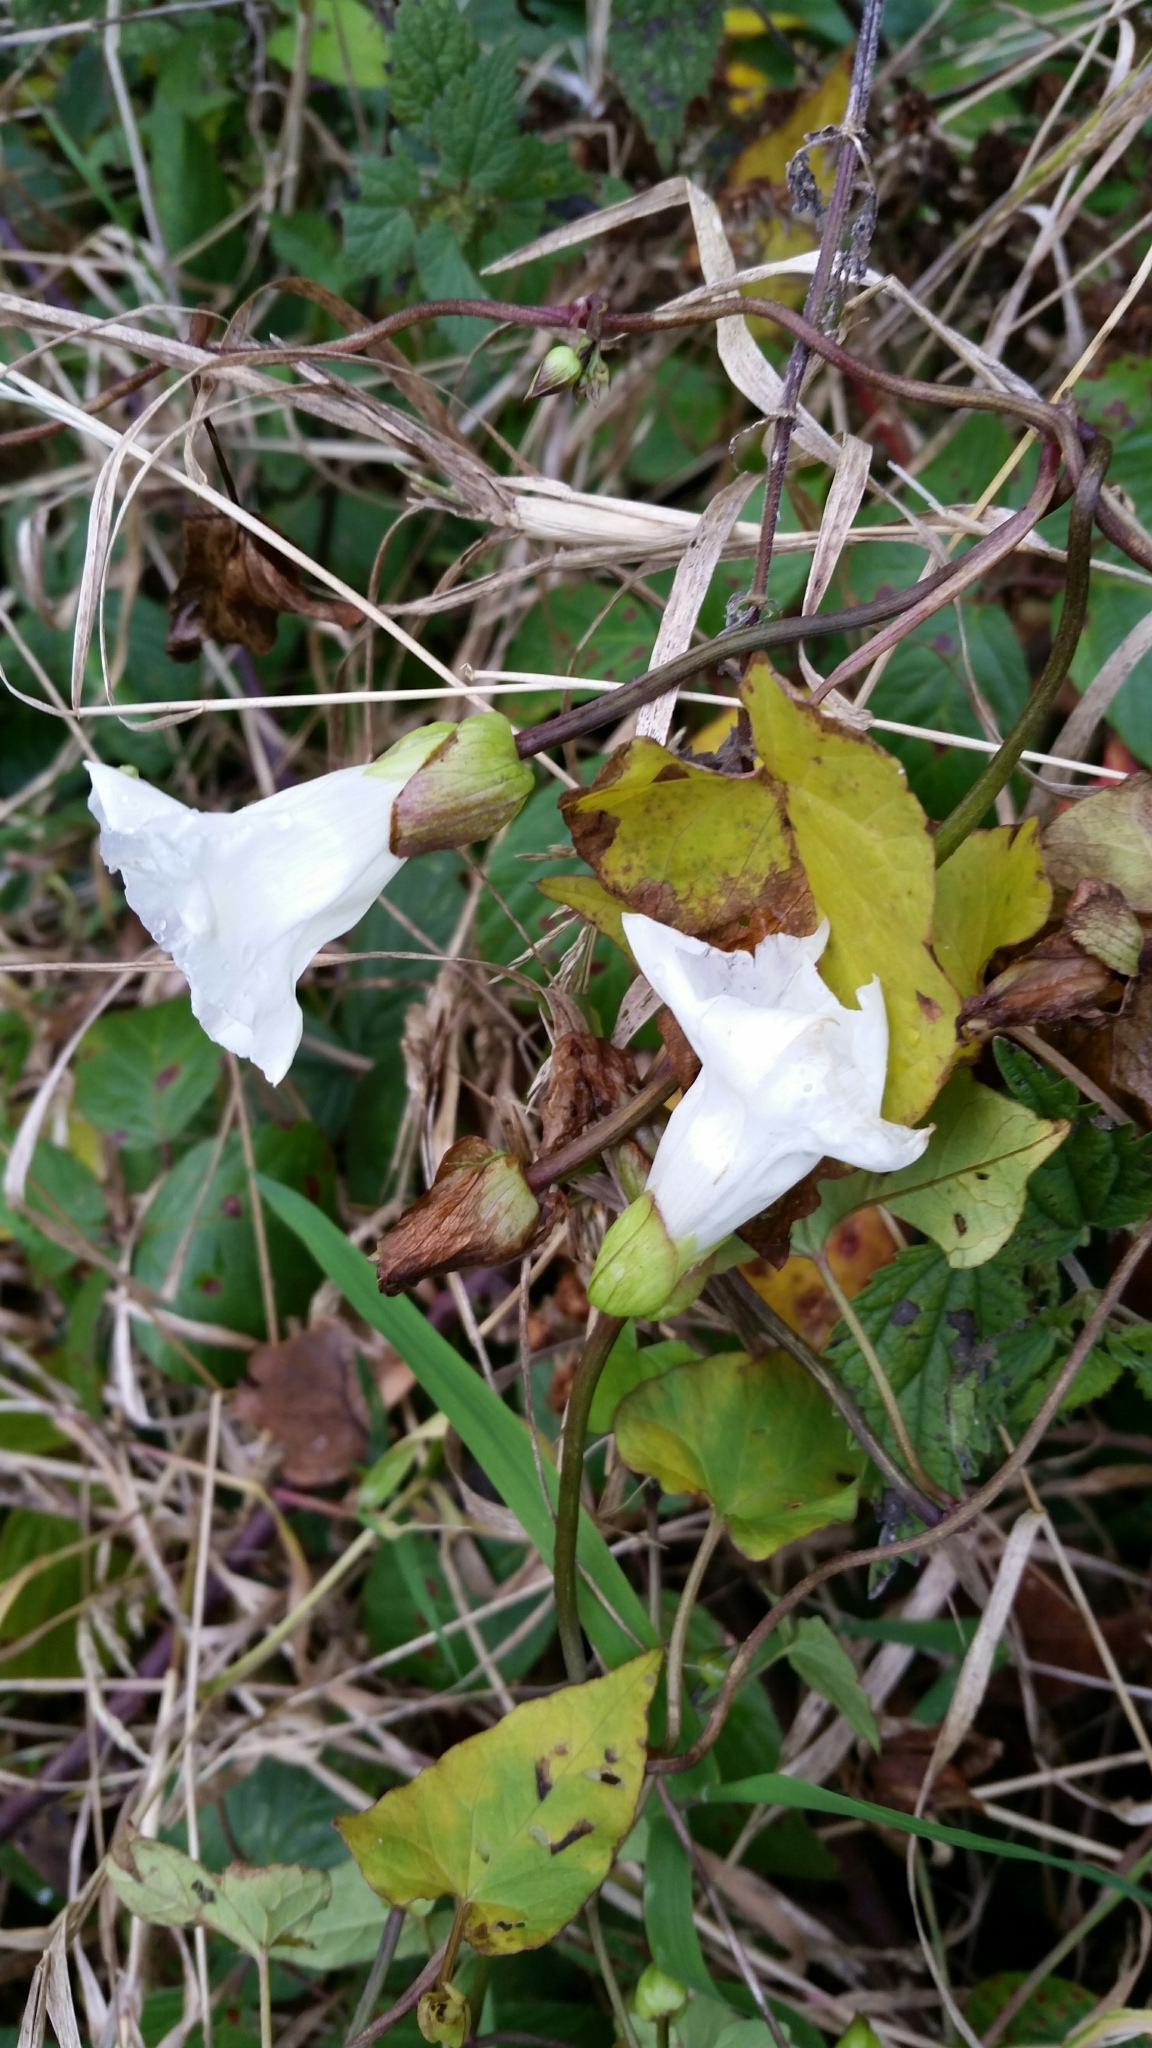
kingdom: Plantae
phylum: Tracheophyta
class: Magnoliopsida
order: Solanales
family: Convolvulaceae
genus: Calystegia
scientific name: Calystegia sepium
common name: Hedge bindweed
